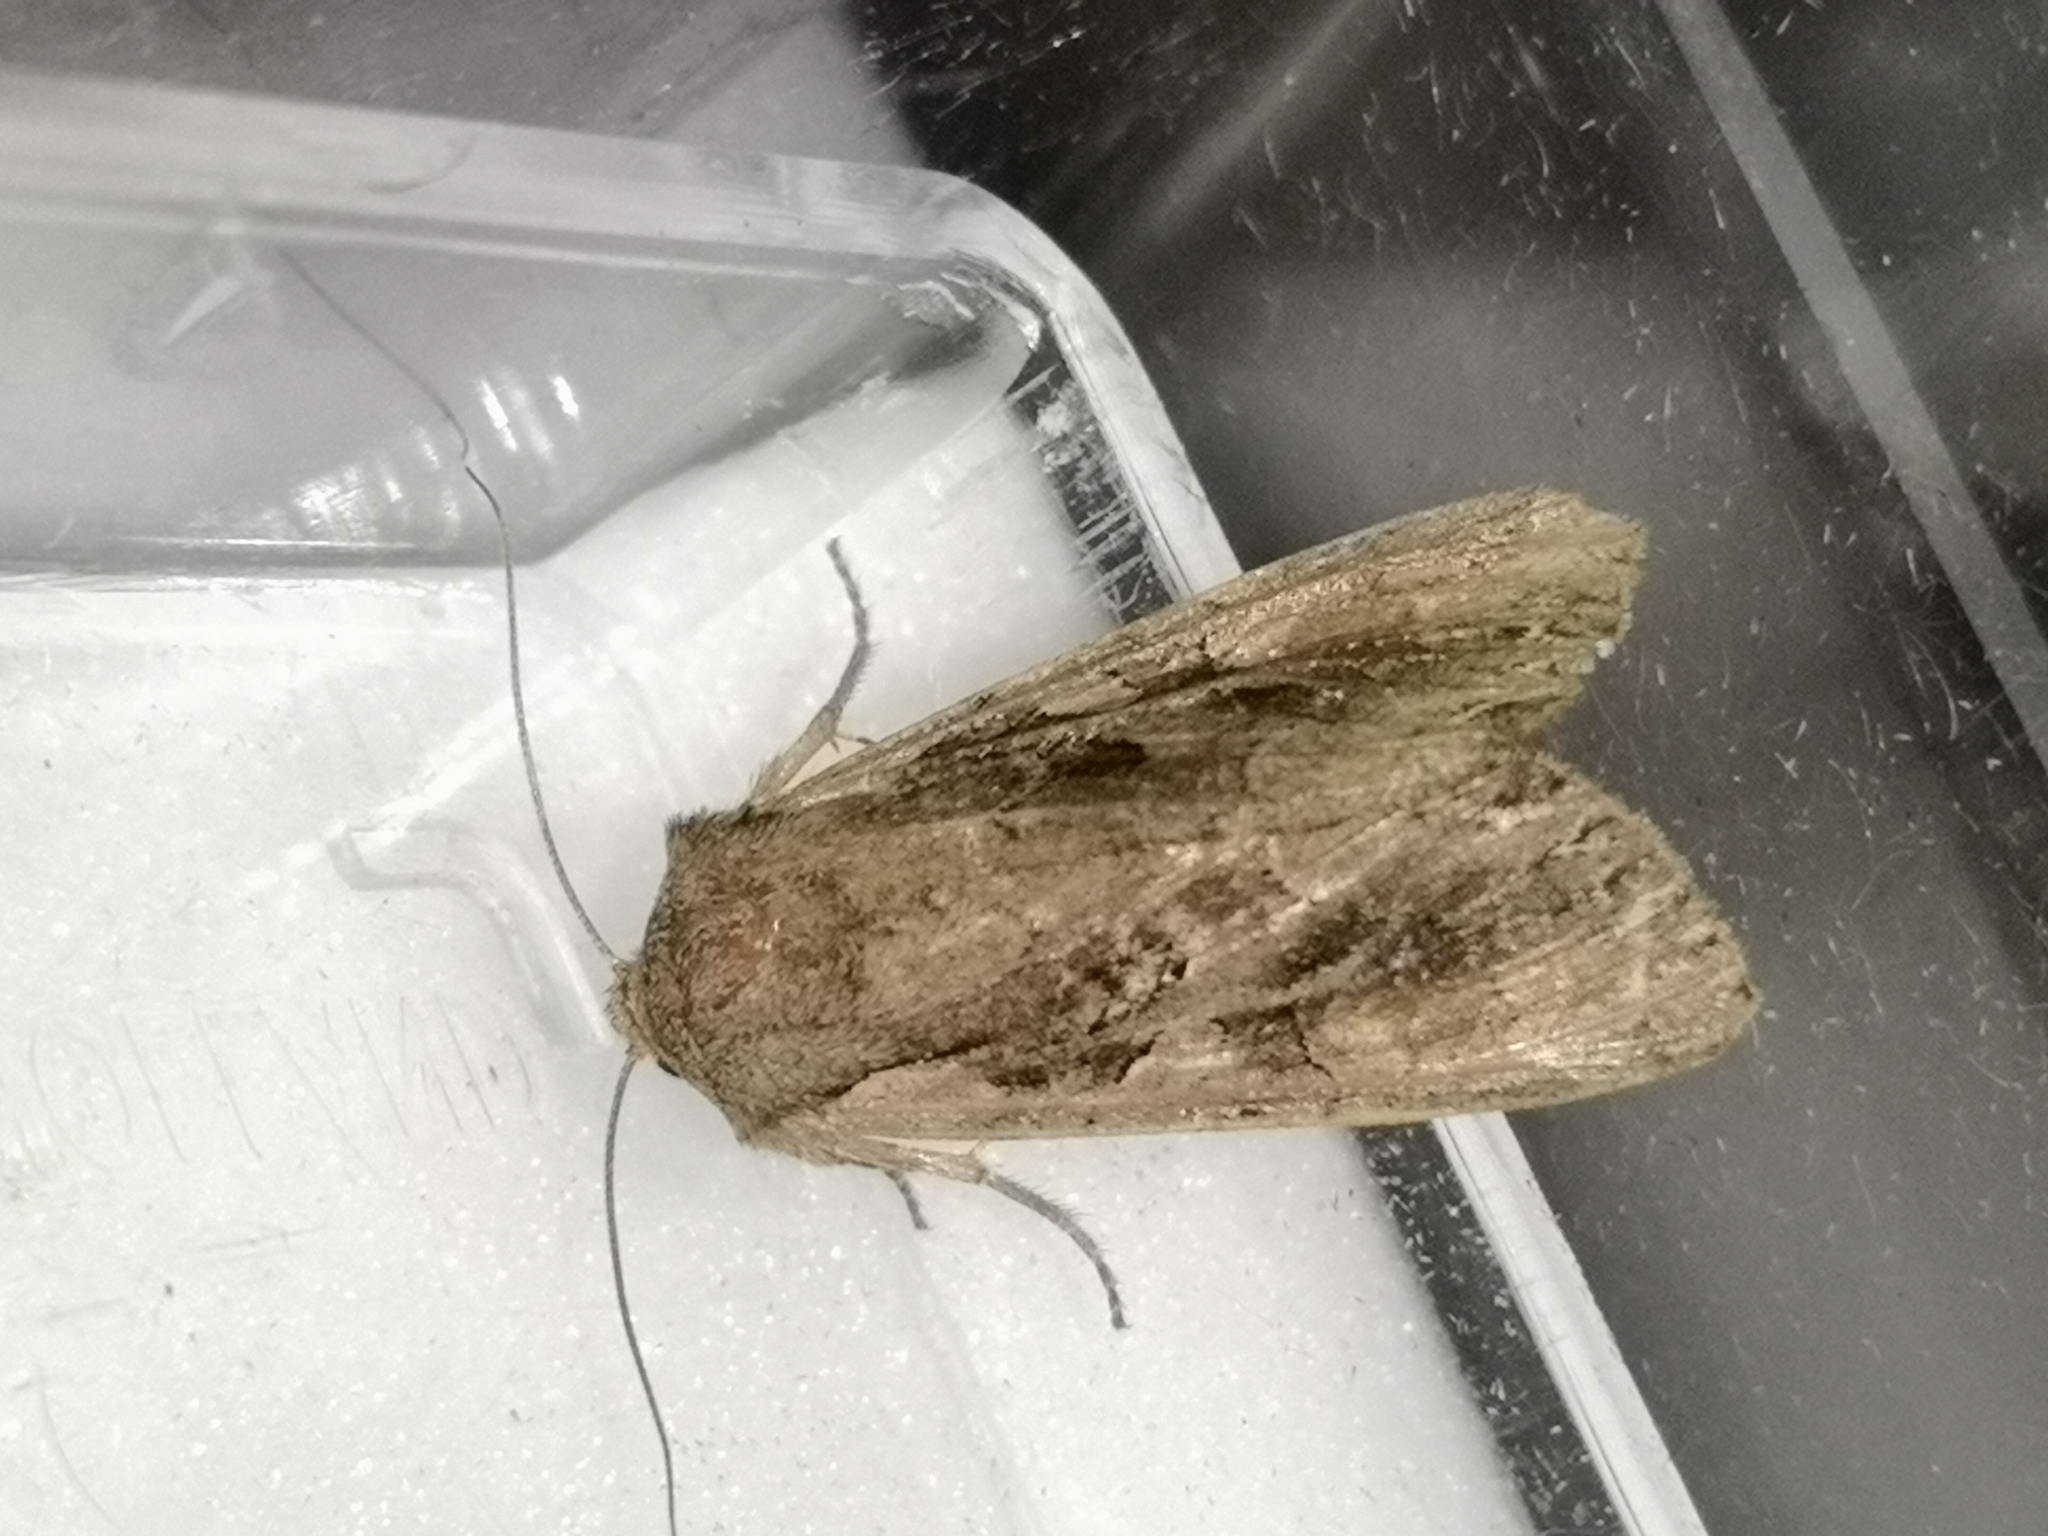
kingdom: Animalia
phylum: Arthropoda
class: Insecta
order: Lepidoptera
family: Noctuidae
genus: Lacanobia
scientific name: Lacanobia suasa
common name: Dog's tooth
